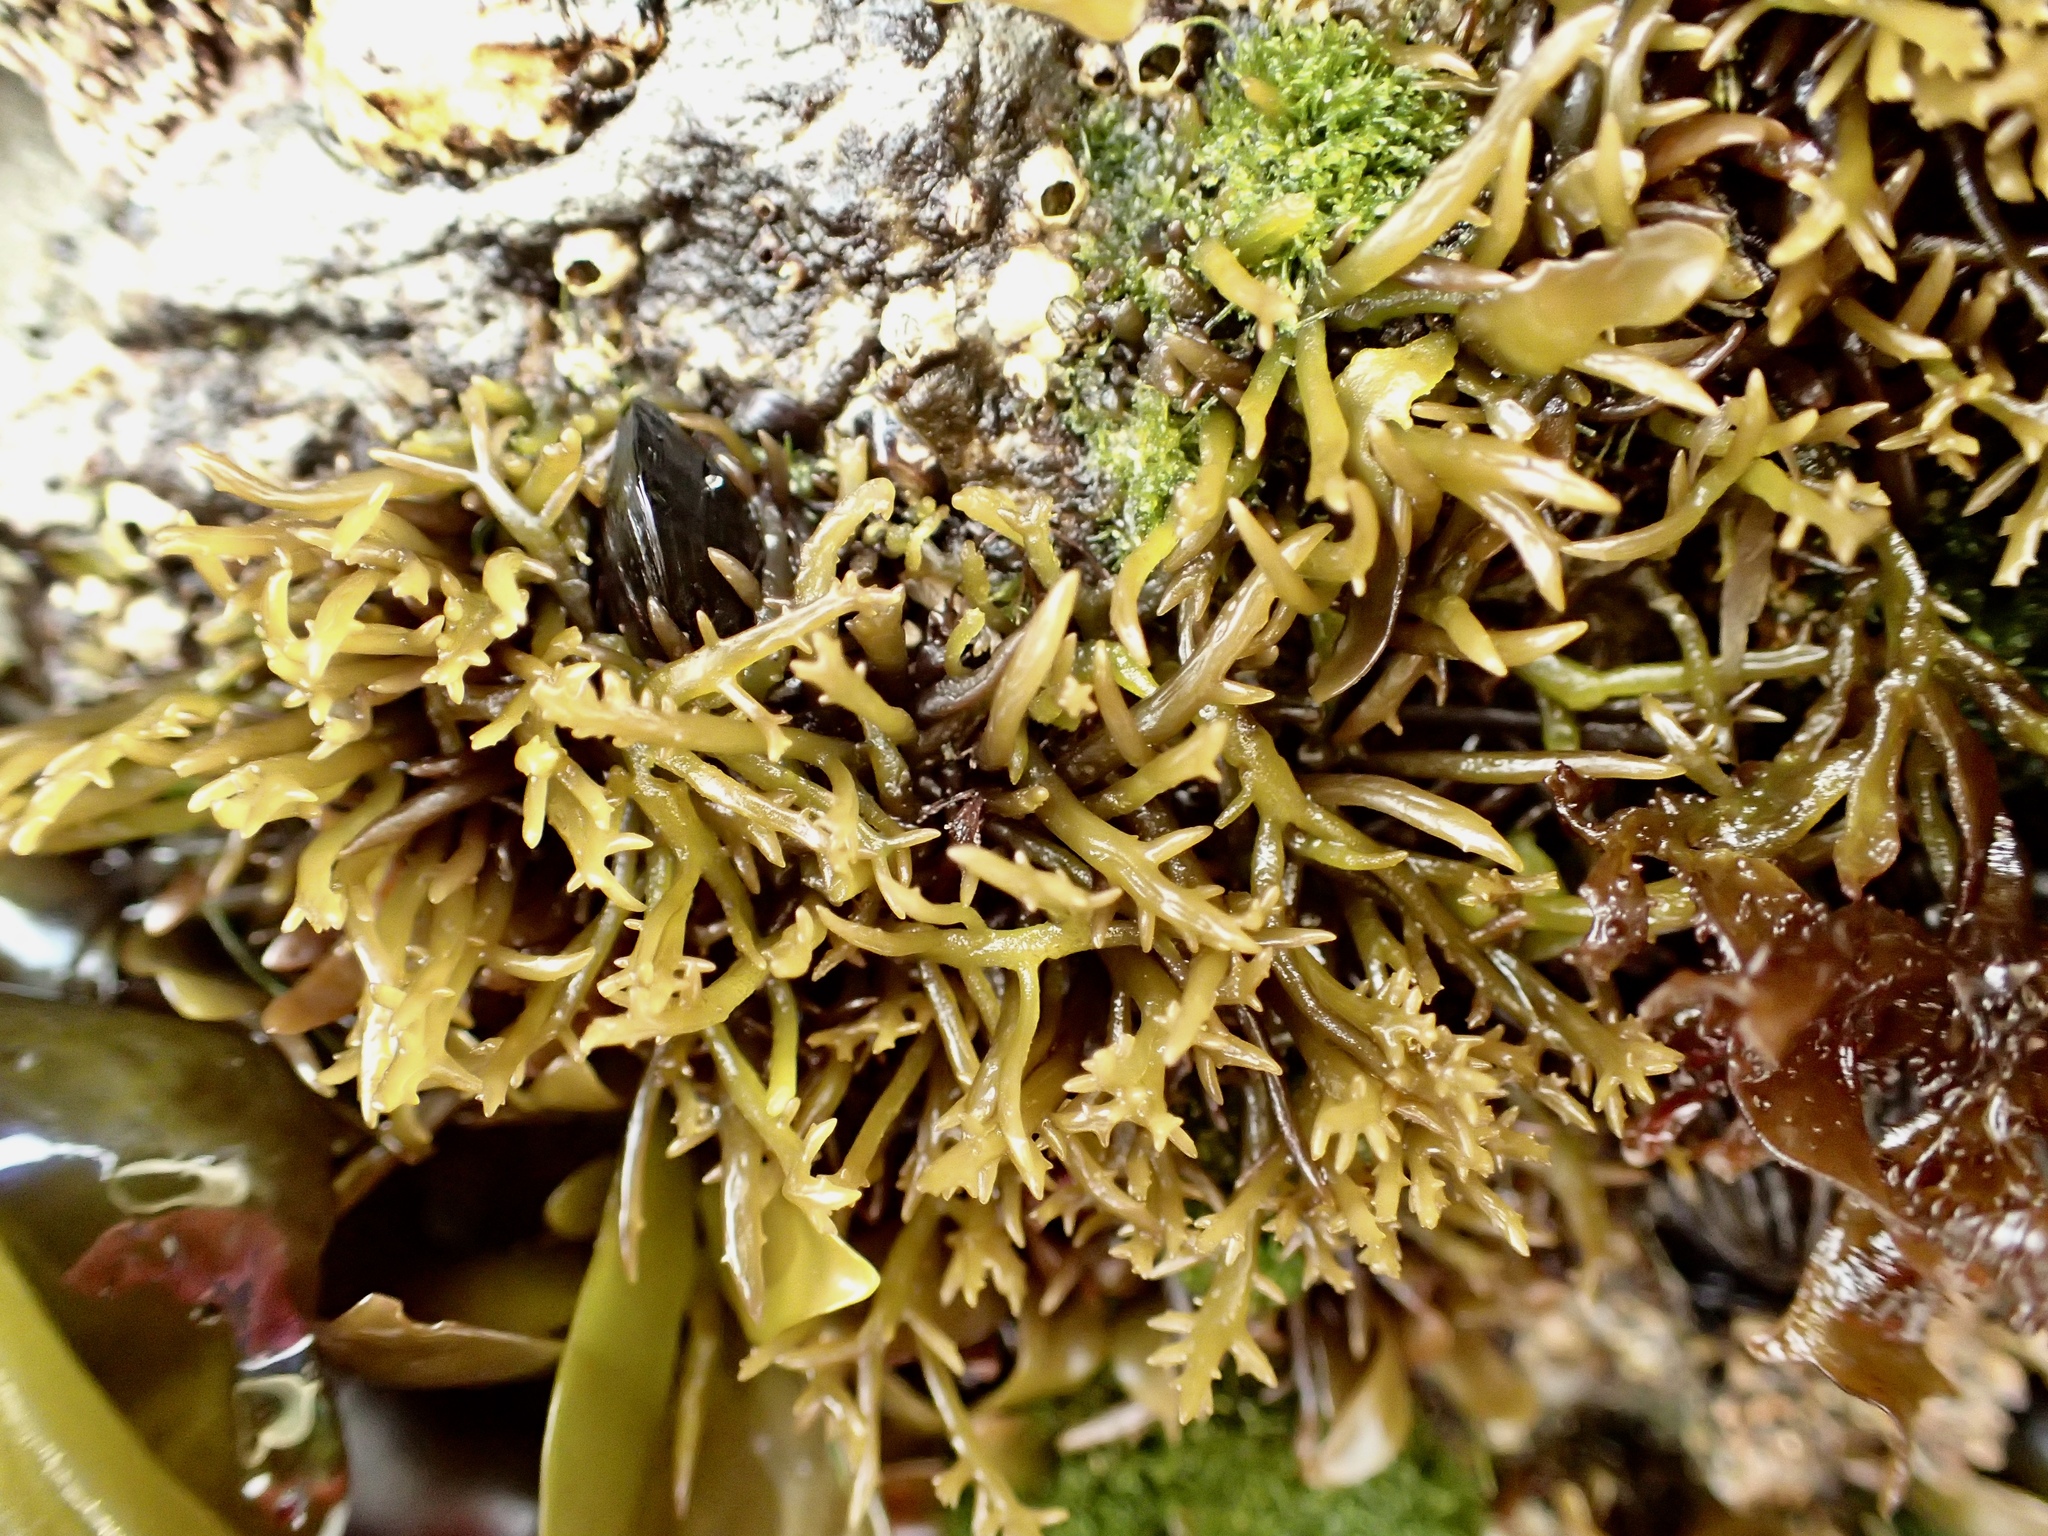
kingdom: Plantae
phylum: Rhodophyta
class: Florideophyceae
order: Gigartinales
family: Gigartinaceae
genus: Chondracanthus
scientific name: Chondracanthus canaliculatus
